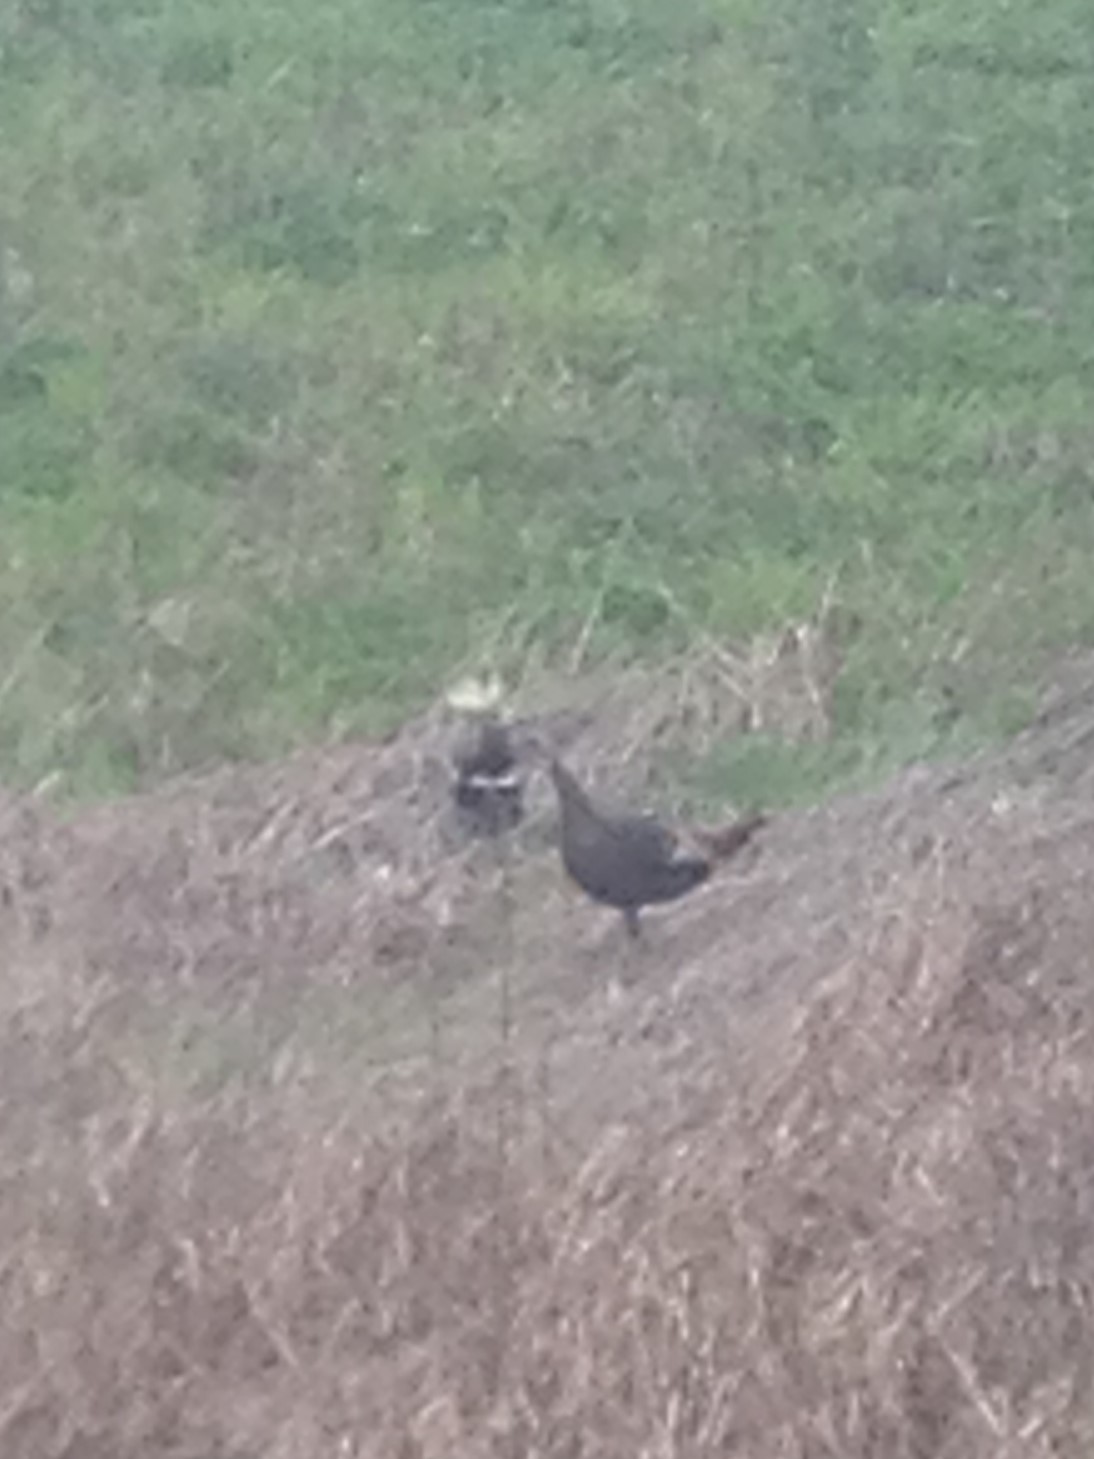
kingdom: Animalia
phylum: Chordata
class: Aves
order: Galliformes
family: Phasianidae
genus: Meleagris
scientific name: Meleagris gallopavo
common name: Wild turkey
